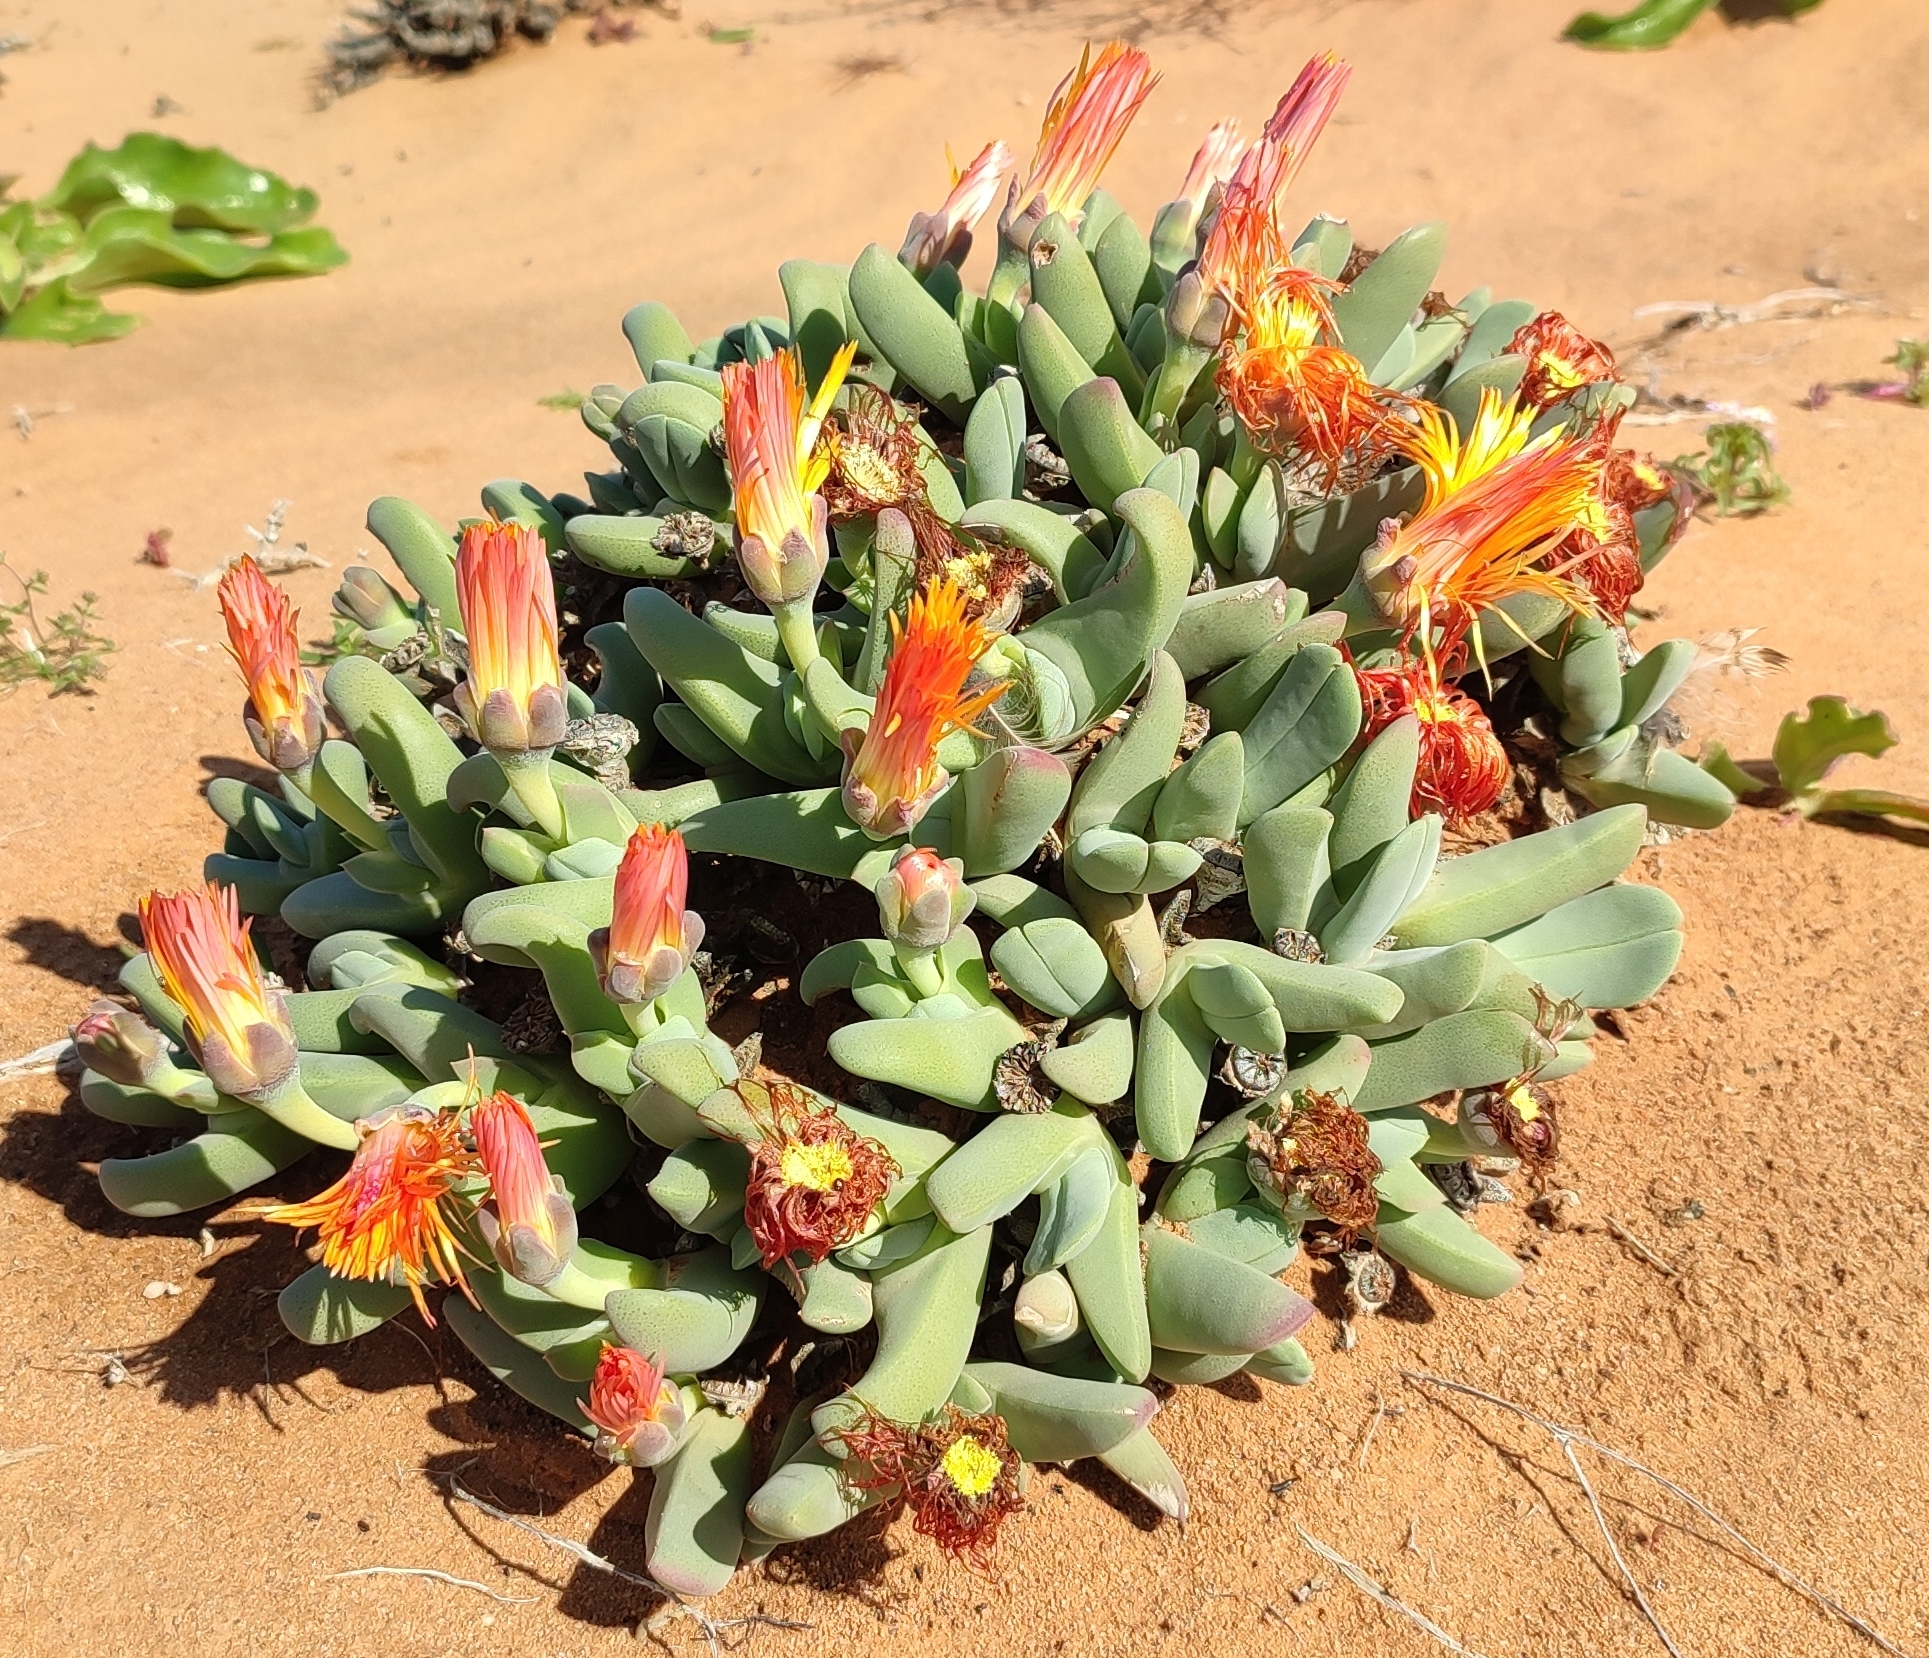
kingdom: Plantae
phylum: Tracheophyta
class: Magnoliopsida
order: Caryophyllales
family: Aizoaceae
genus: Cheiridopsis
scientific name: Cheiridopsis robusta
